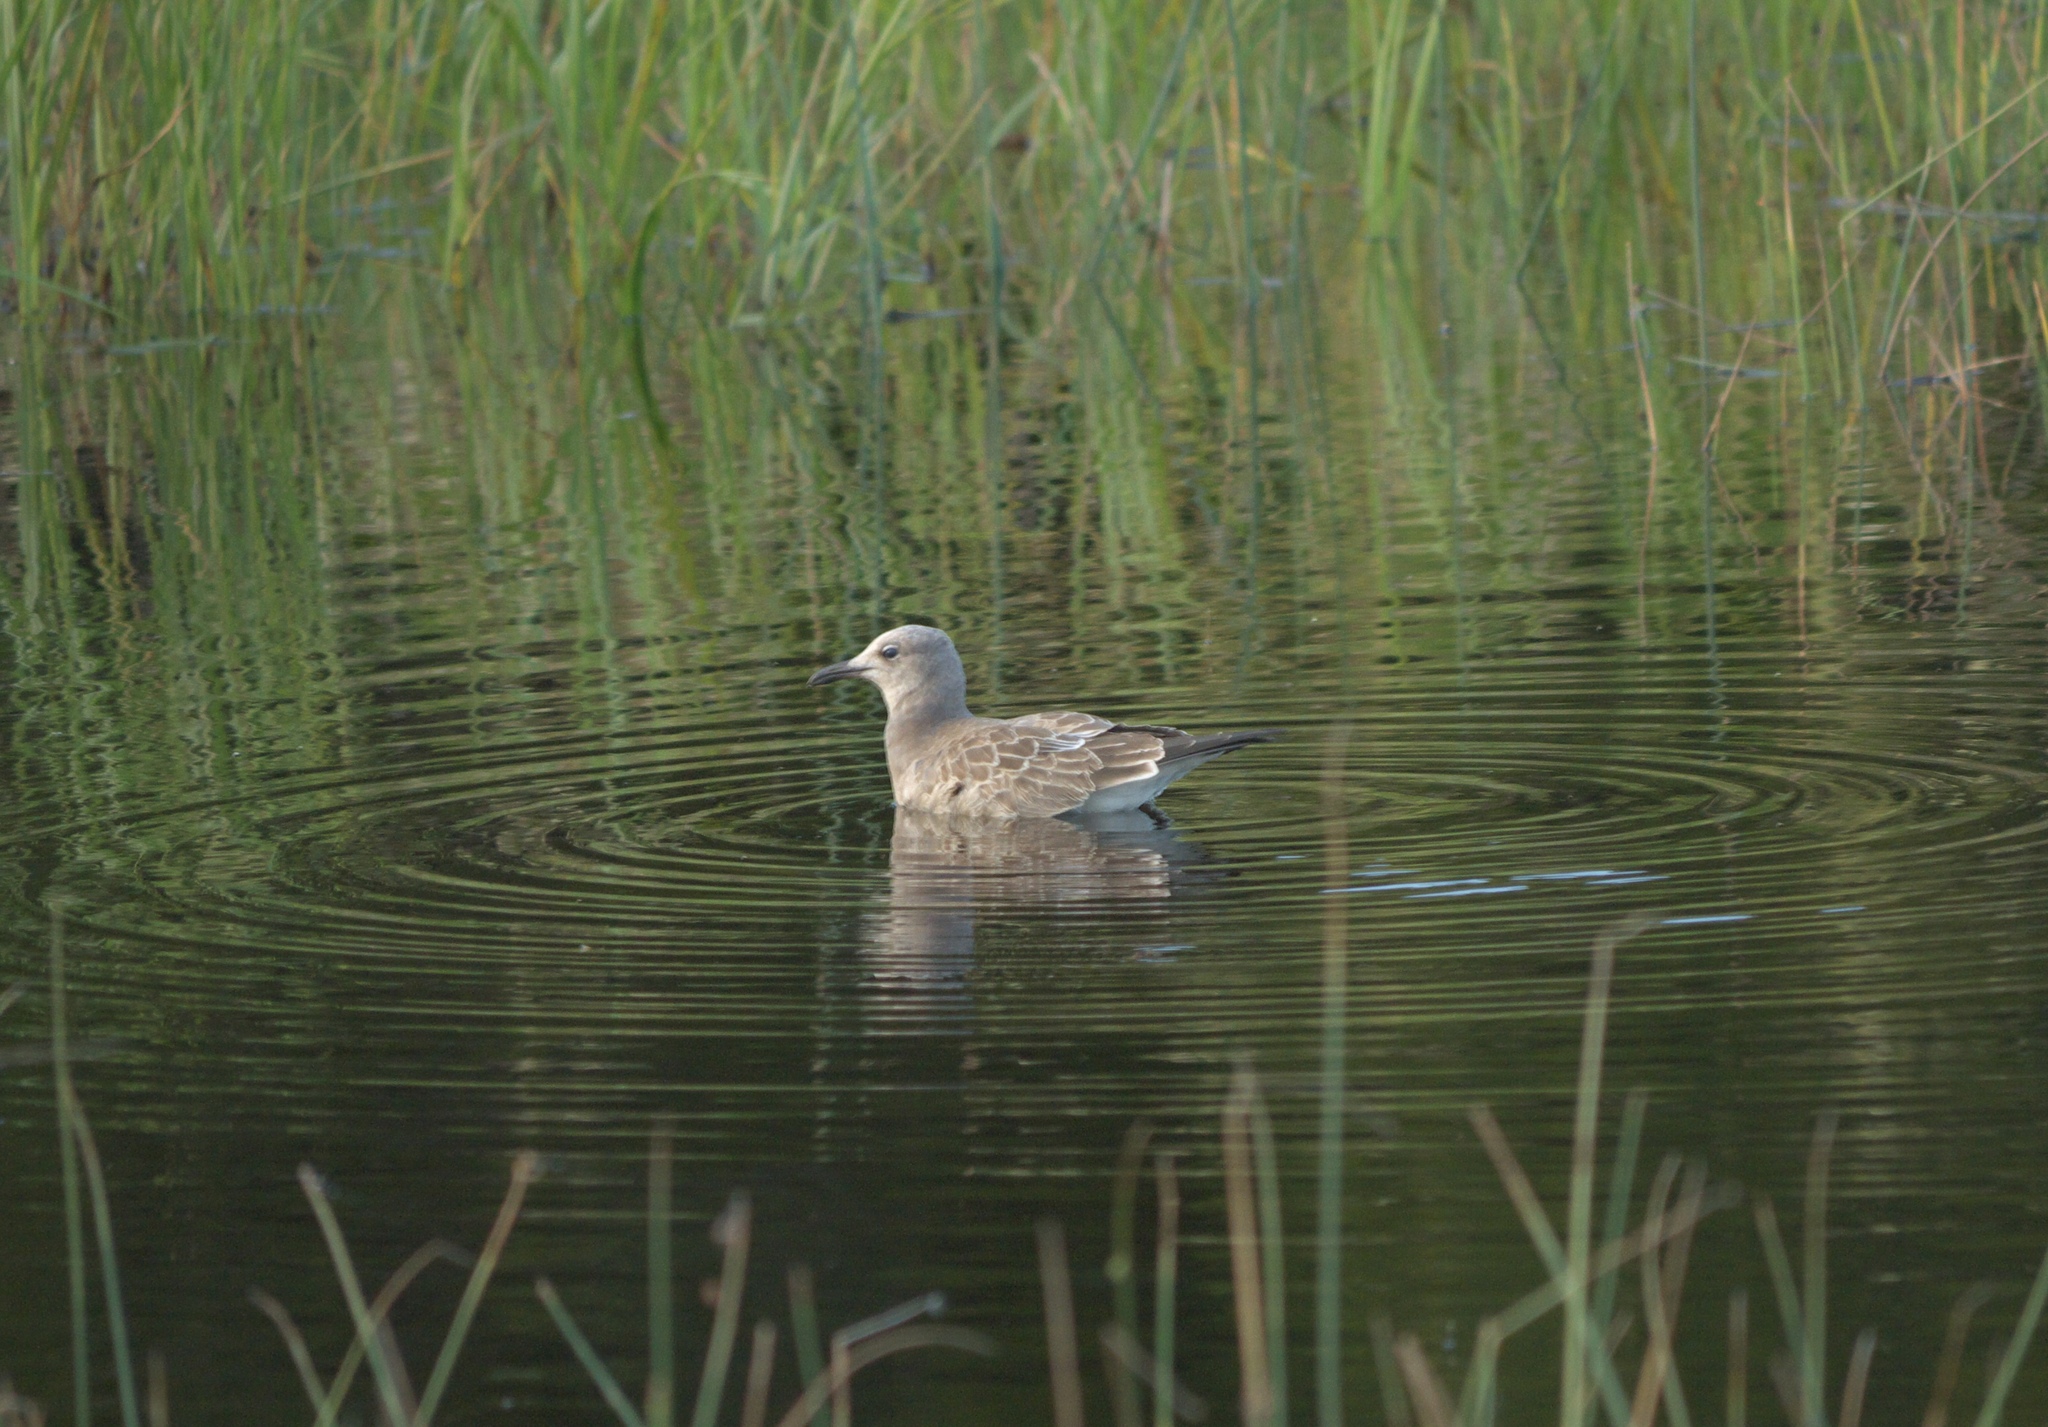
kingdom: Animalia
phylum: Chordata
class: Aves
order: Charadriiformes
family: Laridae
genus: Leucophaeus
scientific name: Leucophaeus atricilla
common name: Laughing gull
